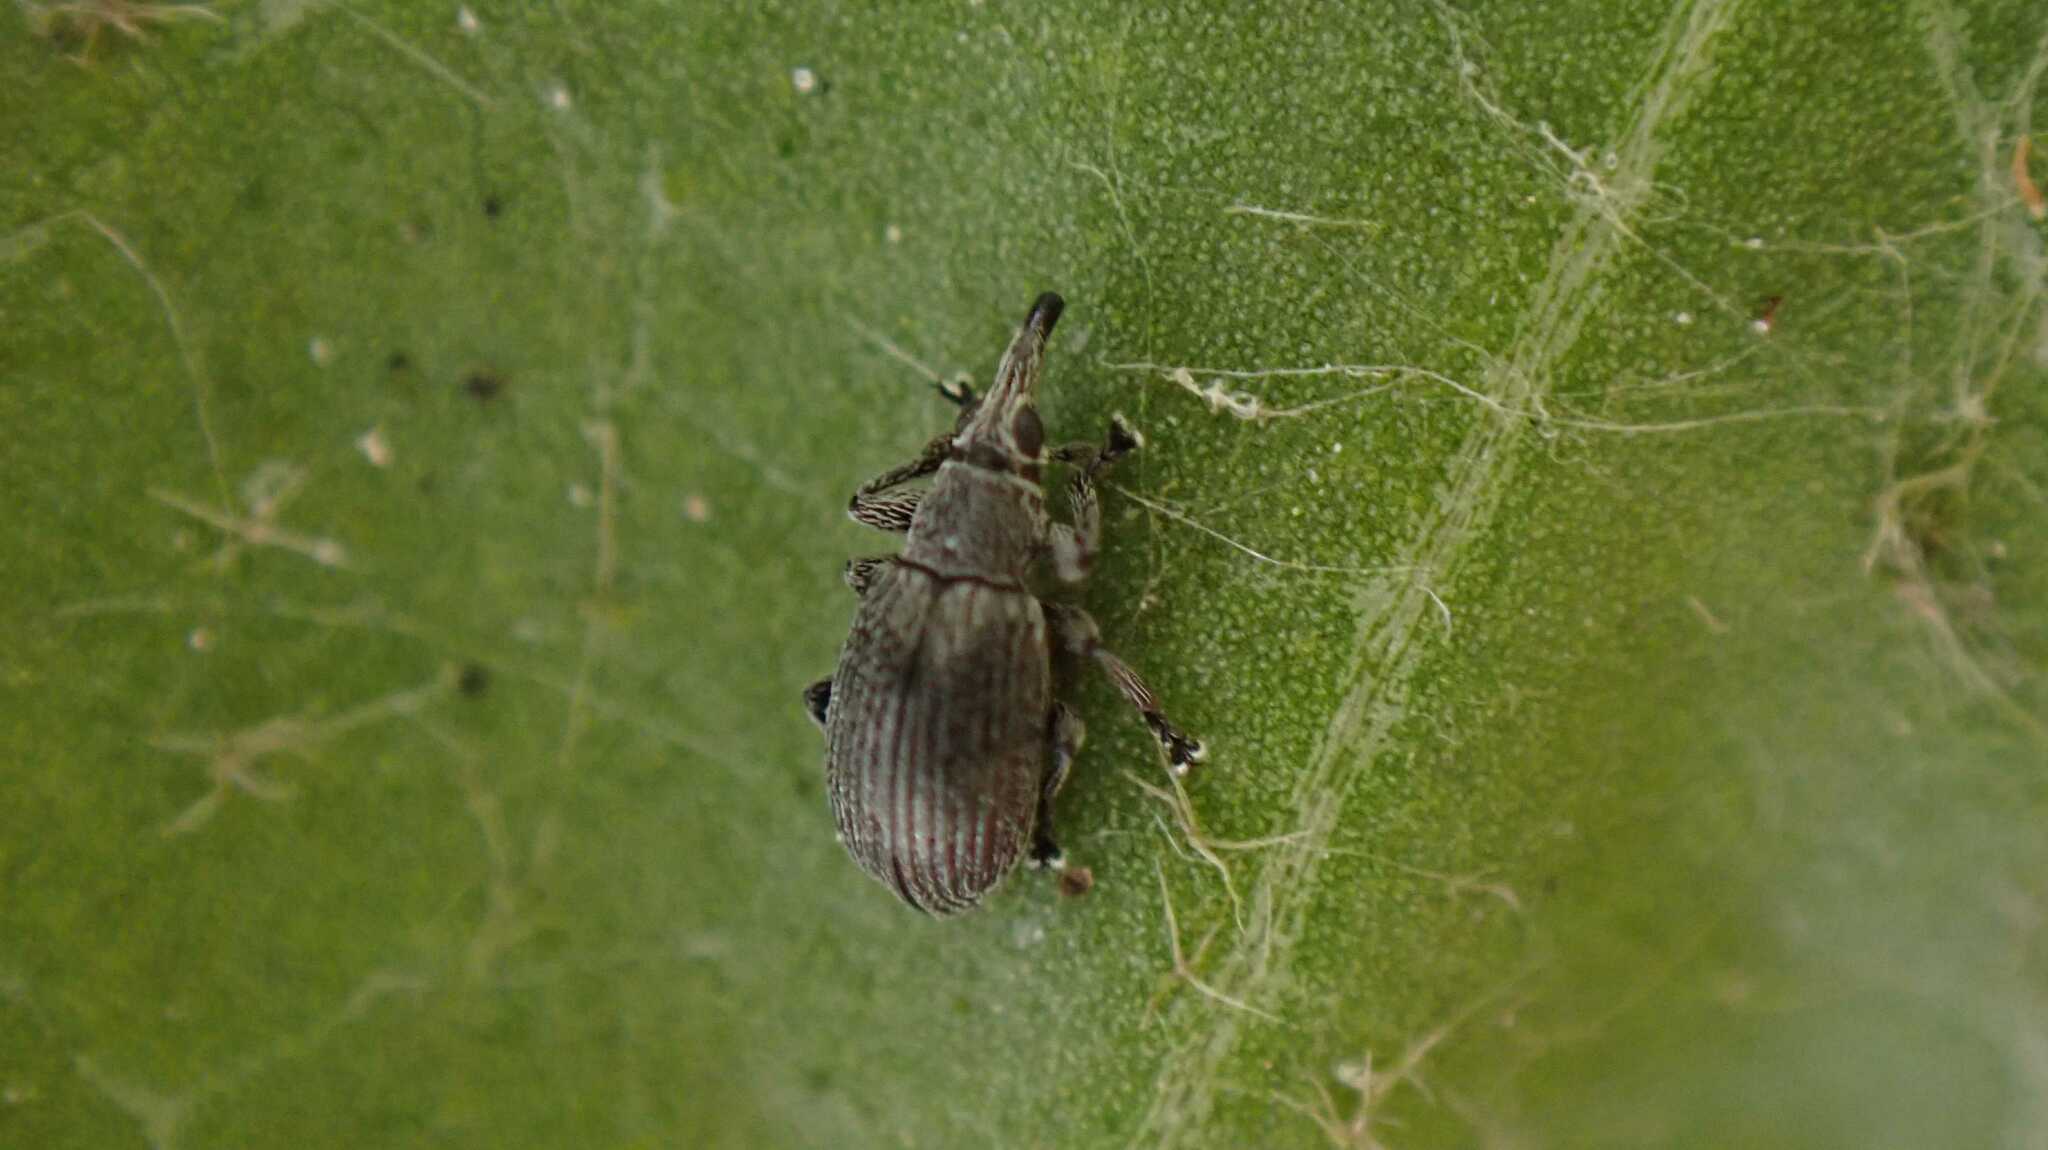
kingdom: Animalia
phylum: Arthropoda
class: Insecta
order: Coleoptera
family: Brentidae
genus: Betulapion
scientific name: Betulapion simile
